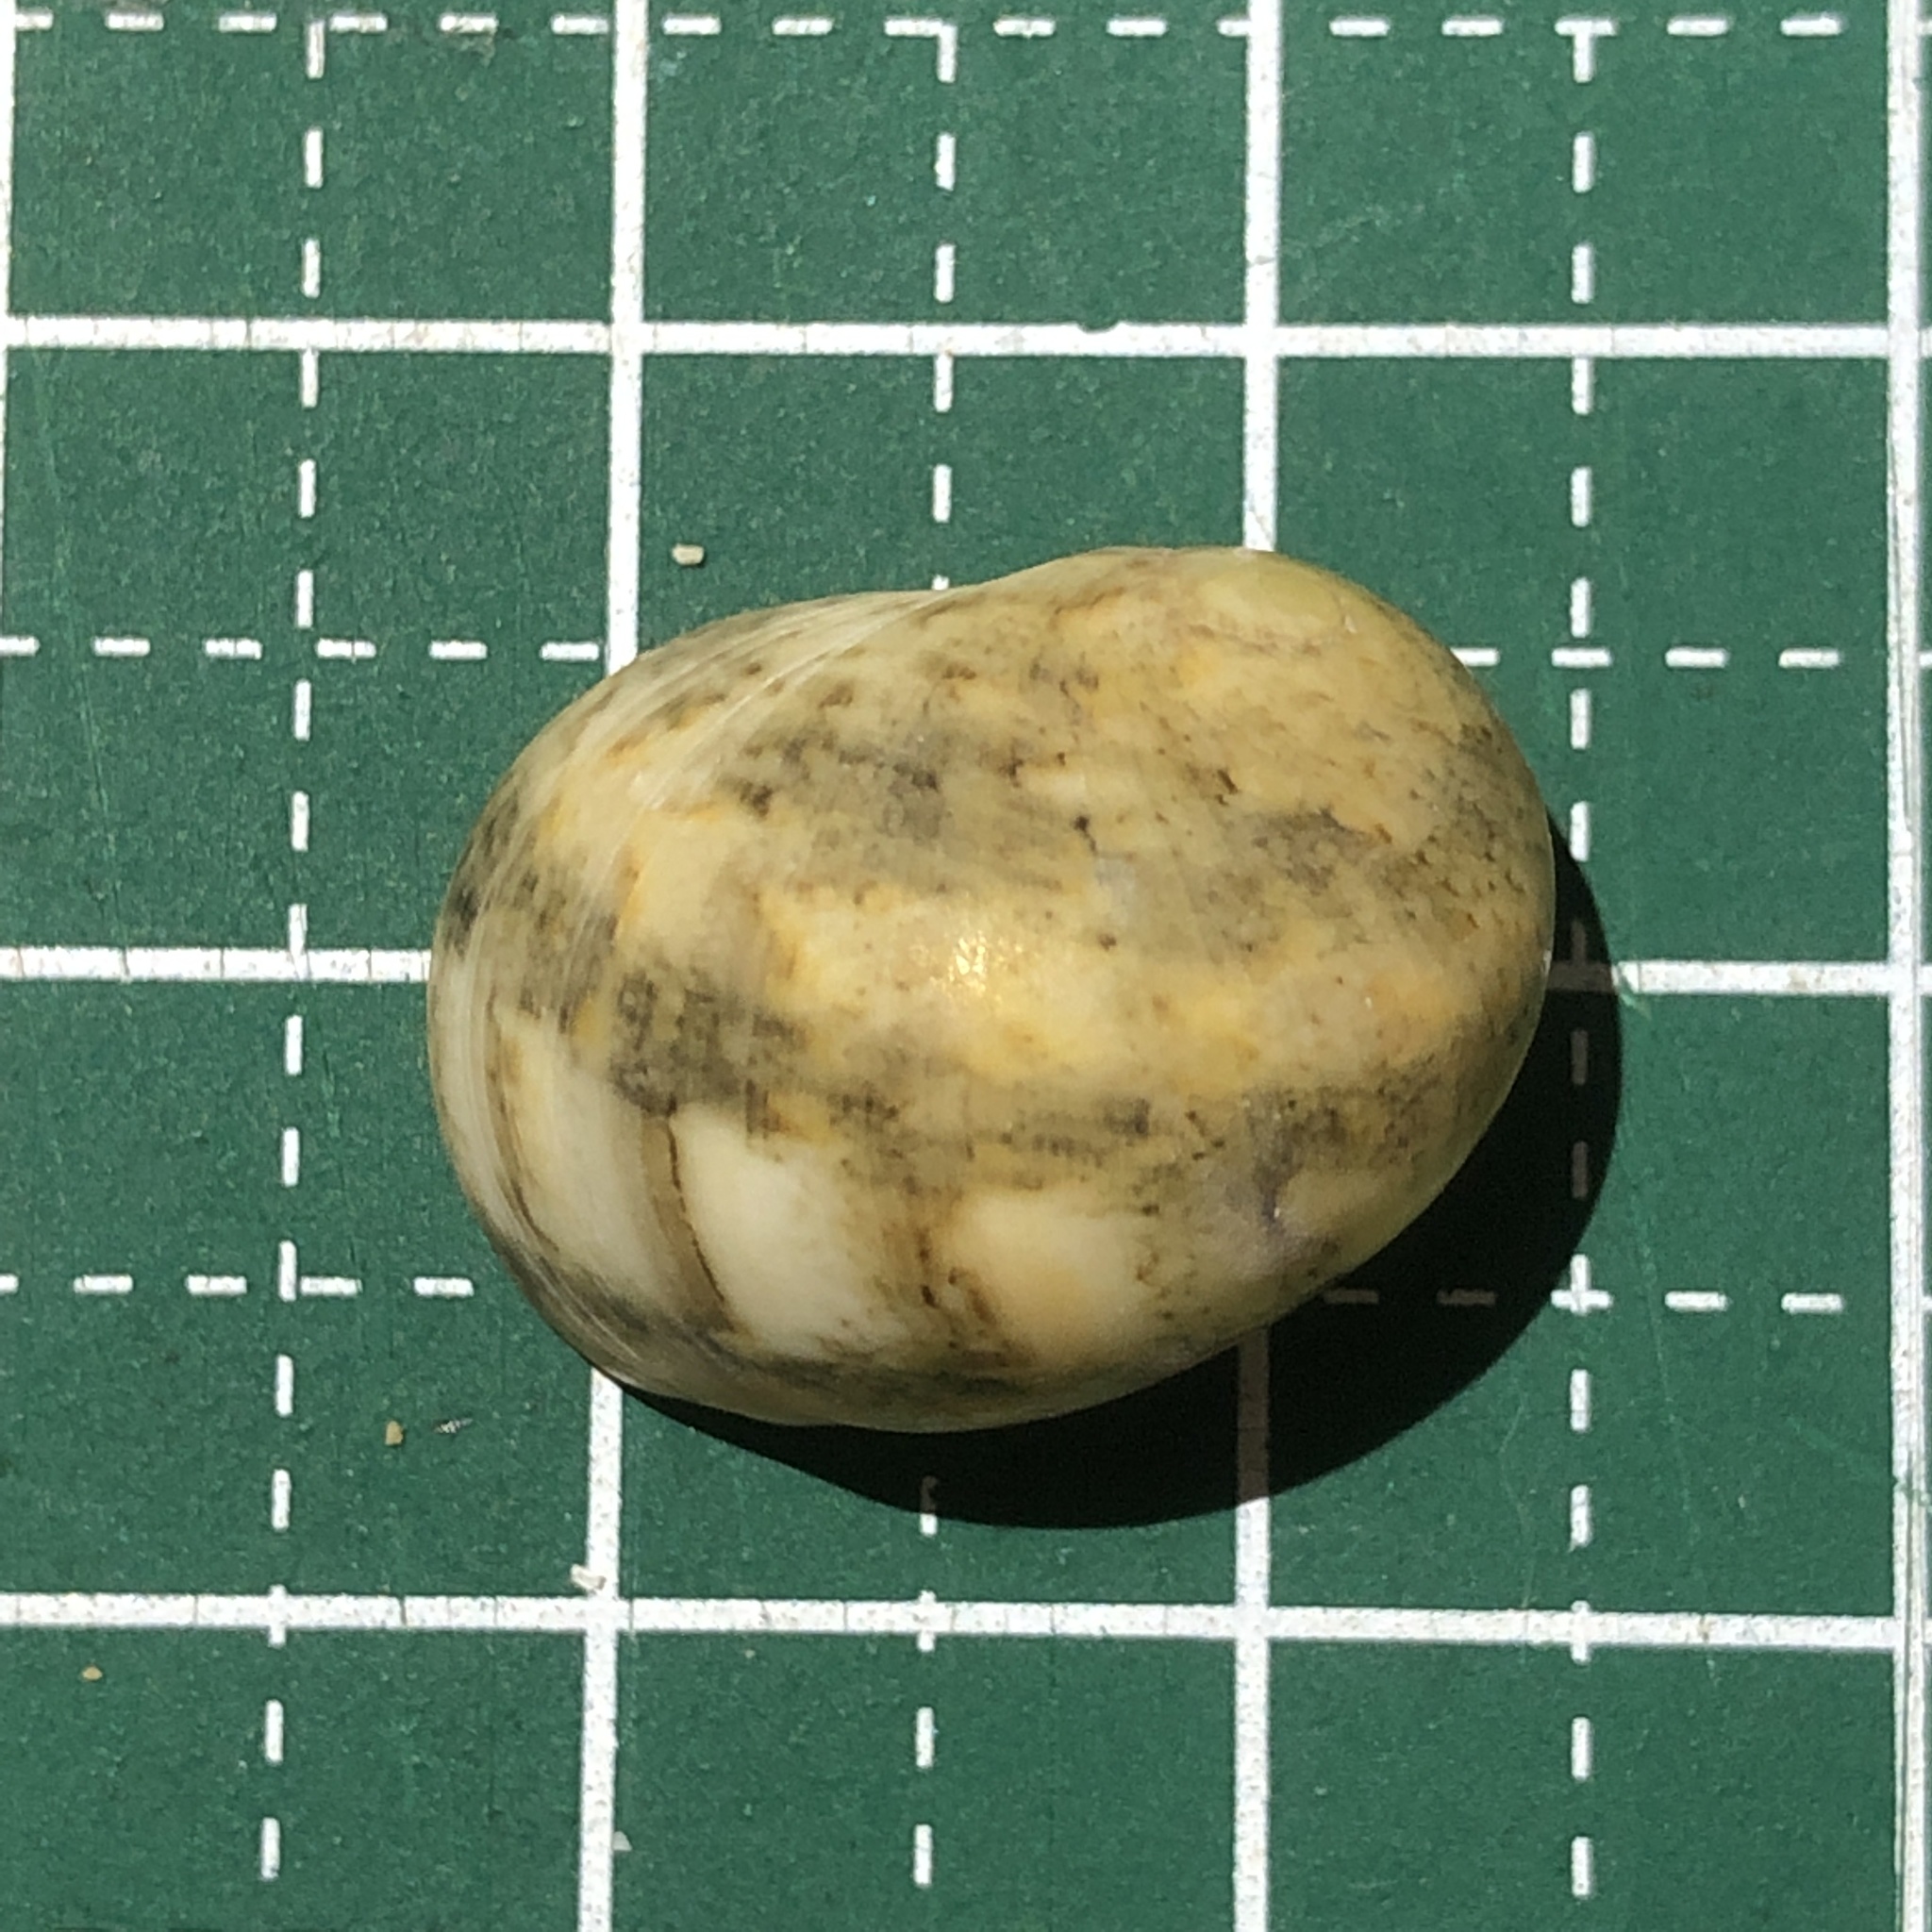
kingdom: Animalia
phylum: Mollusca
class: Gastropoda
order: Cycloneritida
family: Neritidae
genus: Nerita
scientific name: Nerita polita
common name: Polished nerite
